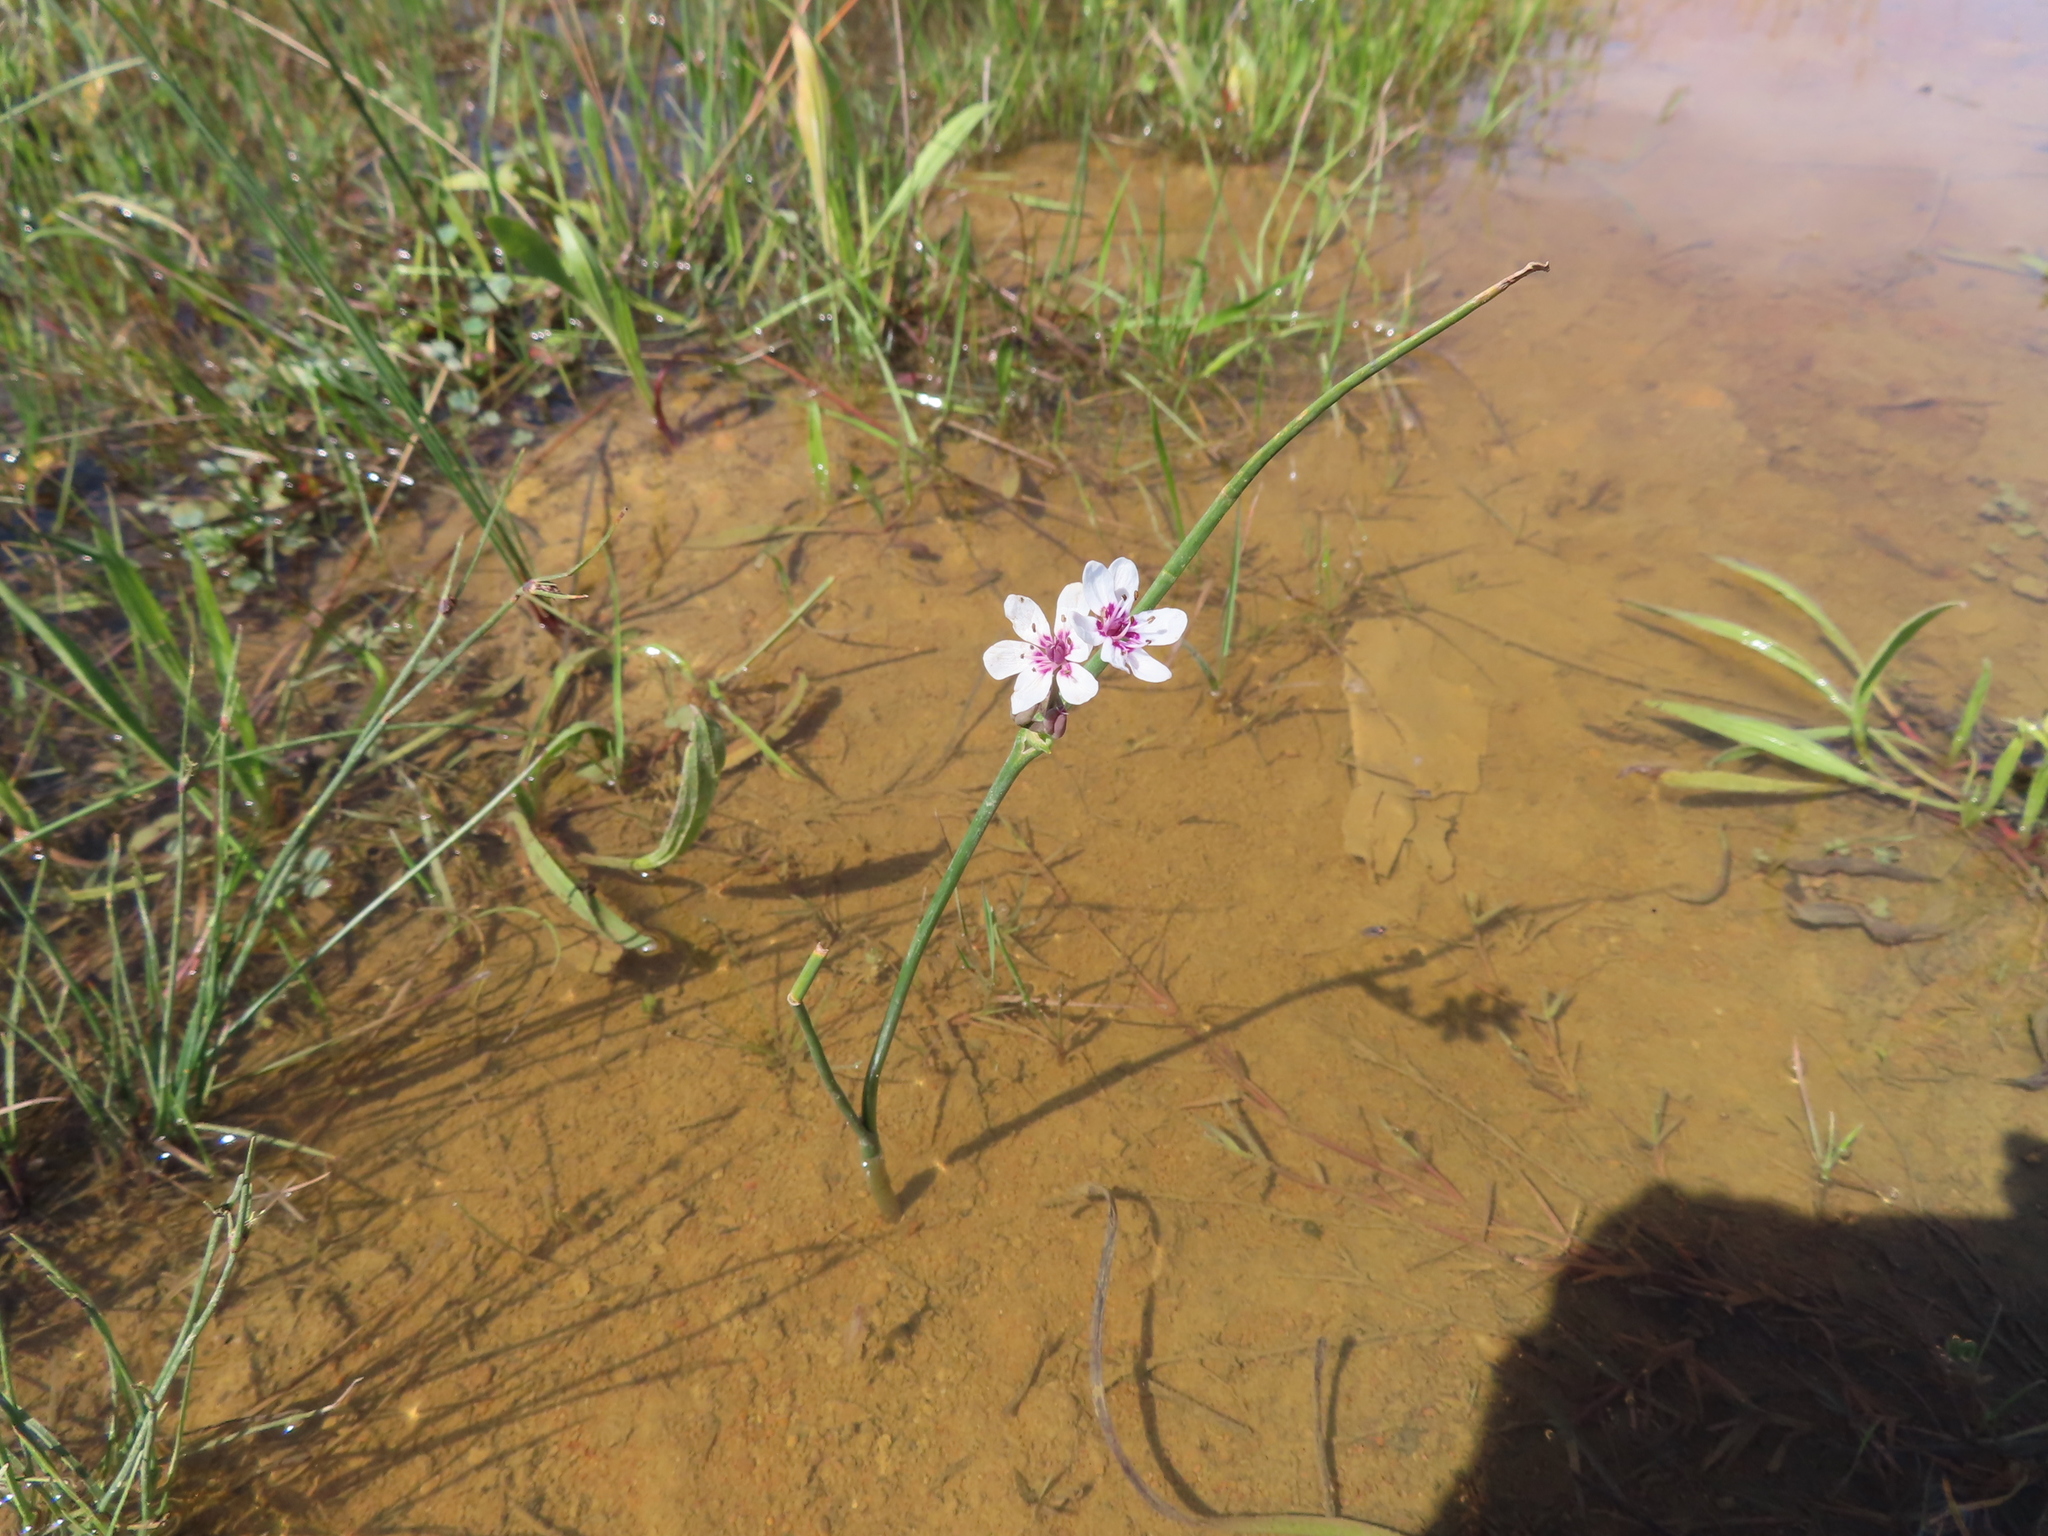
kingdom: Plantae
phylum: Tracheophyta
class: Liliopsida
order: Liliales
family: Colchicaceae
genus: Wurmbea
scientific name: Wurmbea stricta
